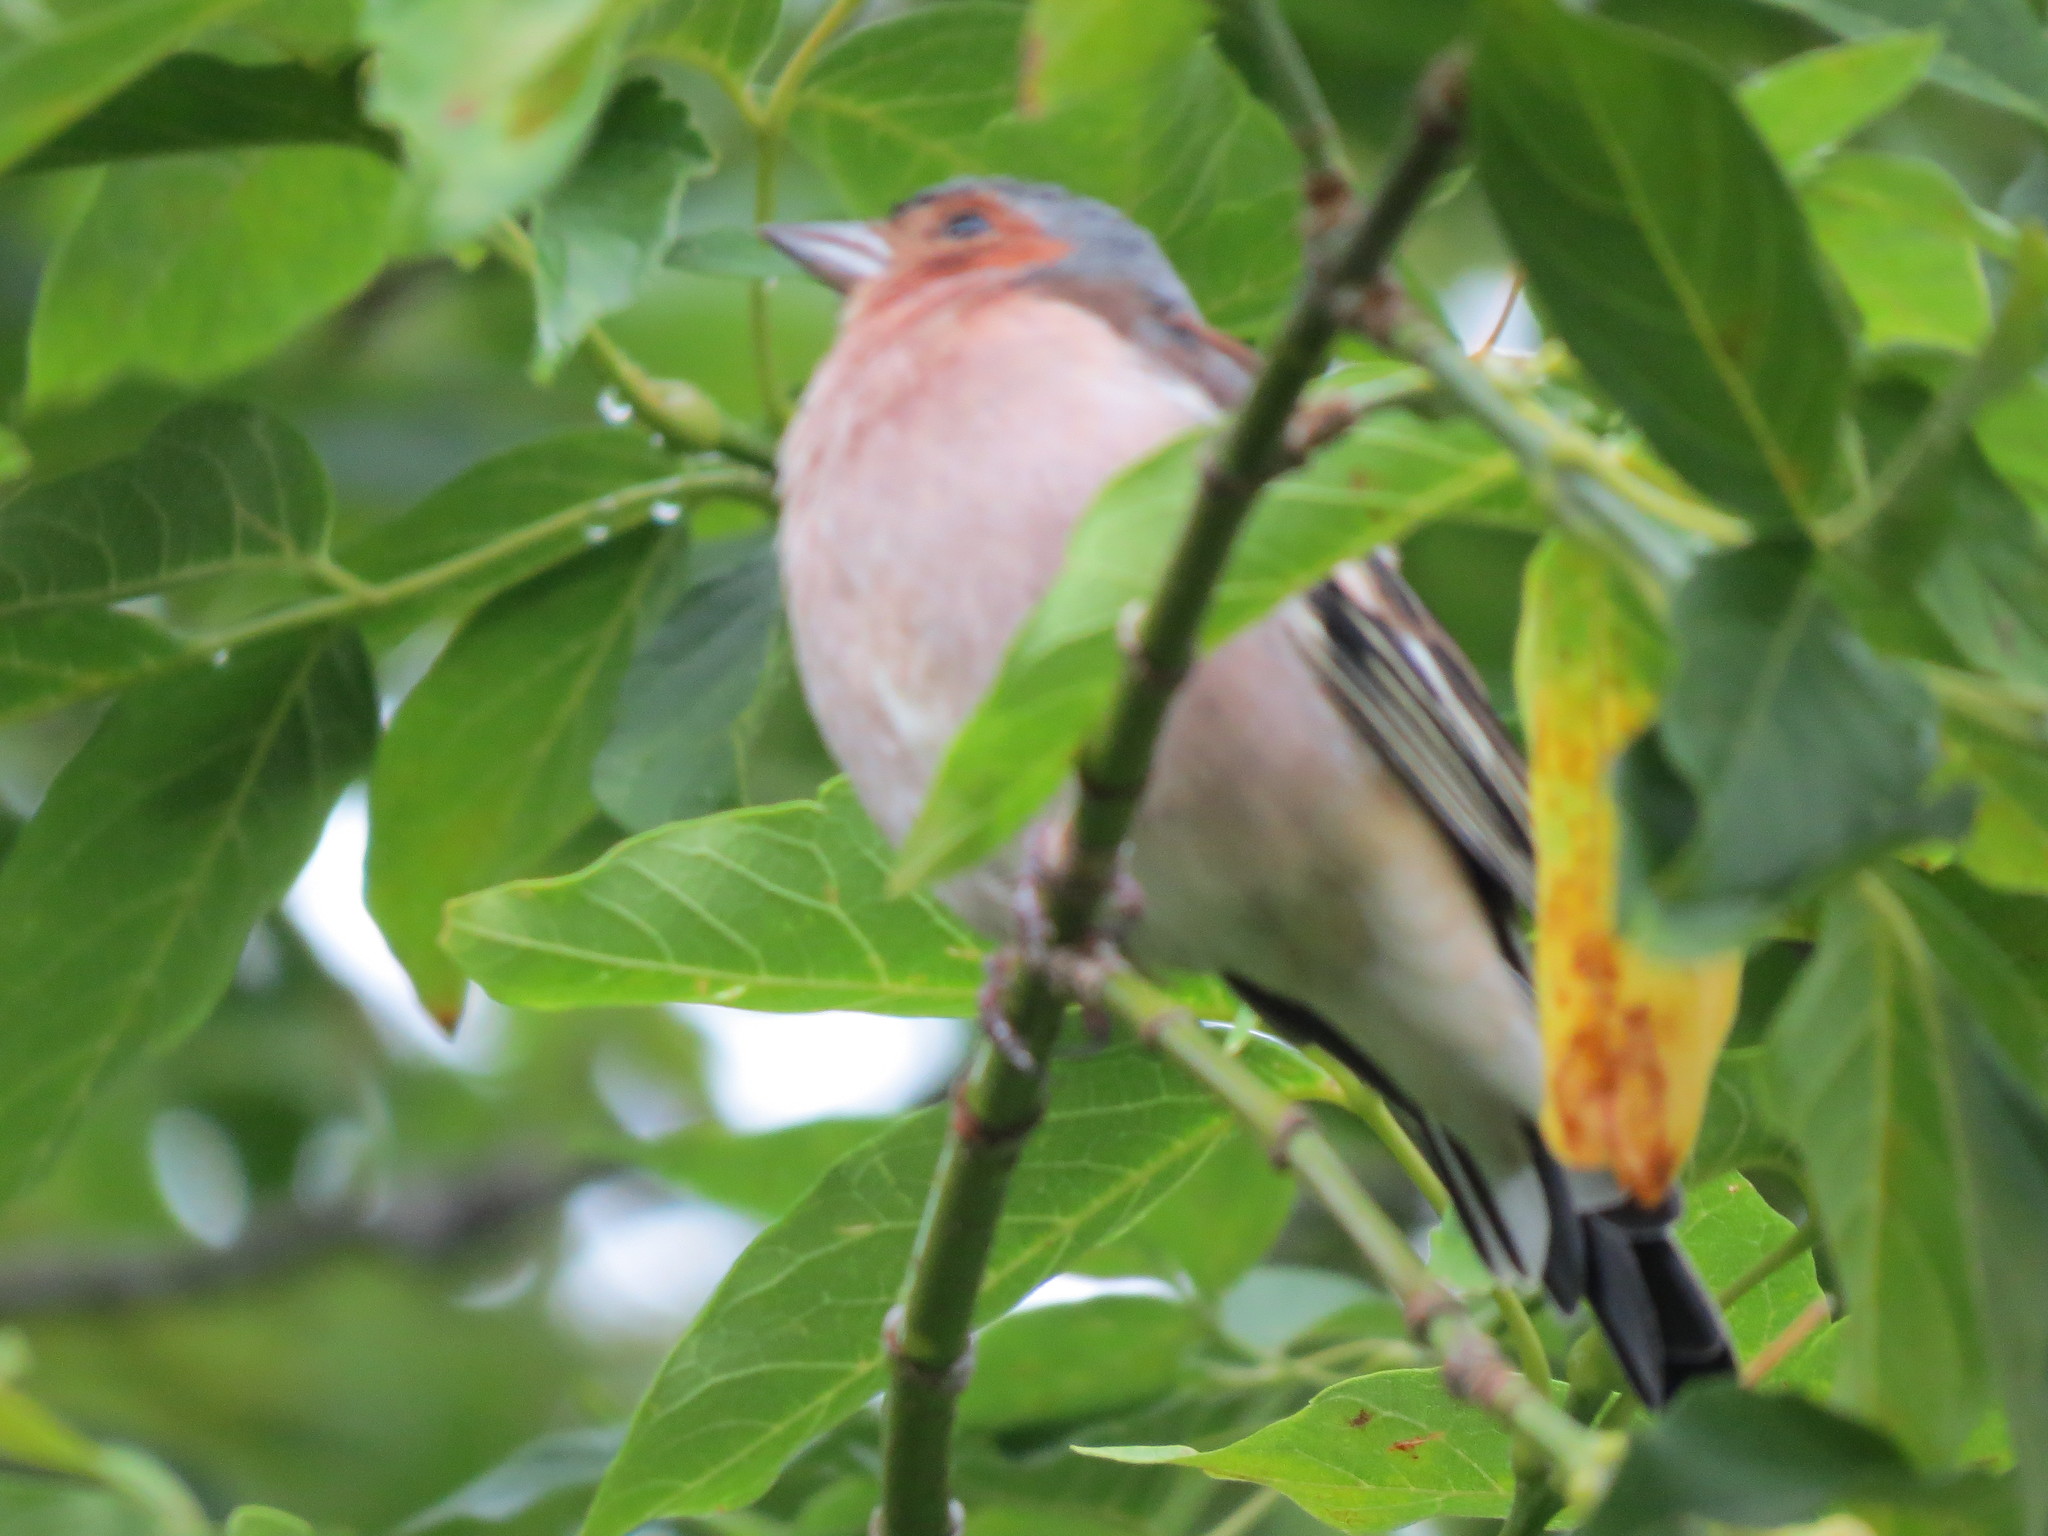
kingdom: Animalia
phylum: Chordata
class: Aves
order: Passeriformes
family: Fringillidae
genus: Fringilla
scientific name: Fringilla coelebs
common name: Common chaffinch
